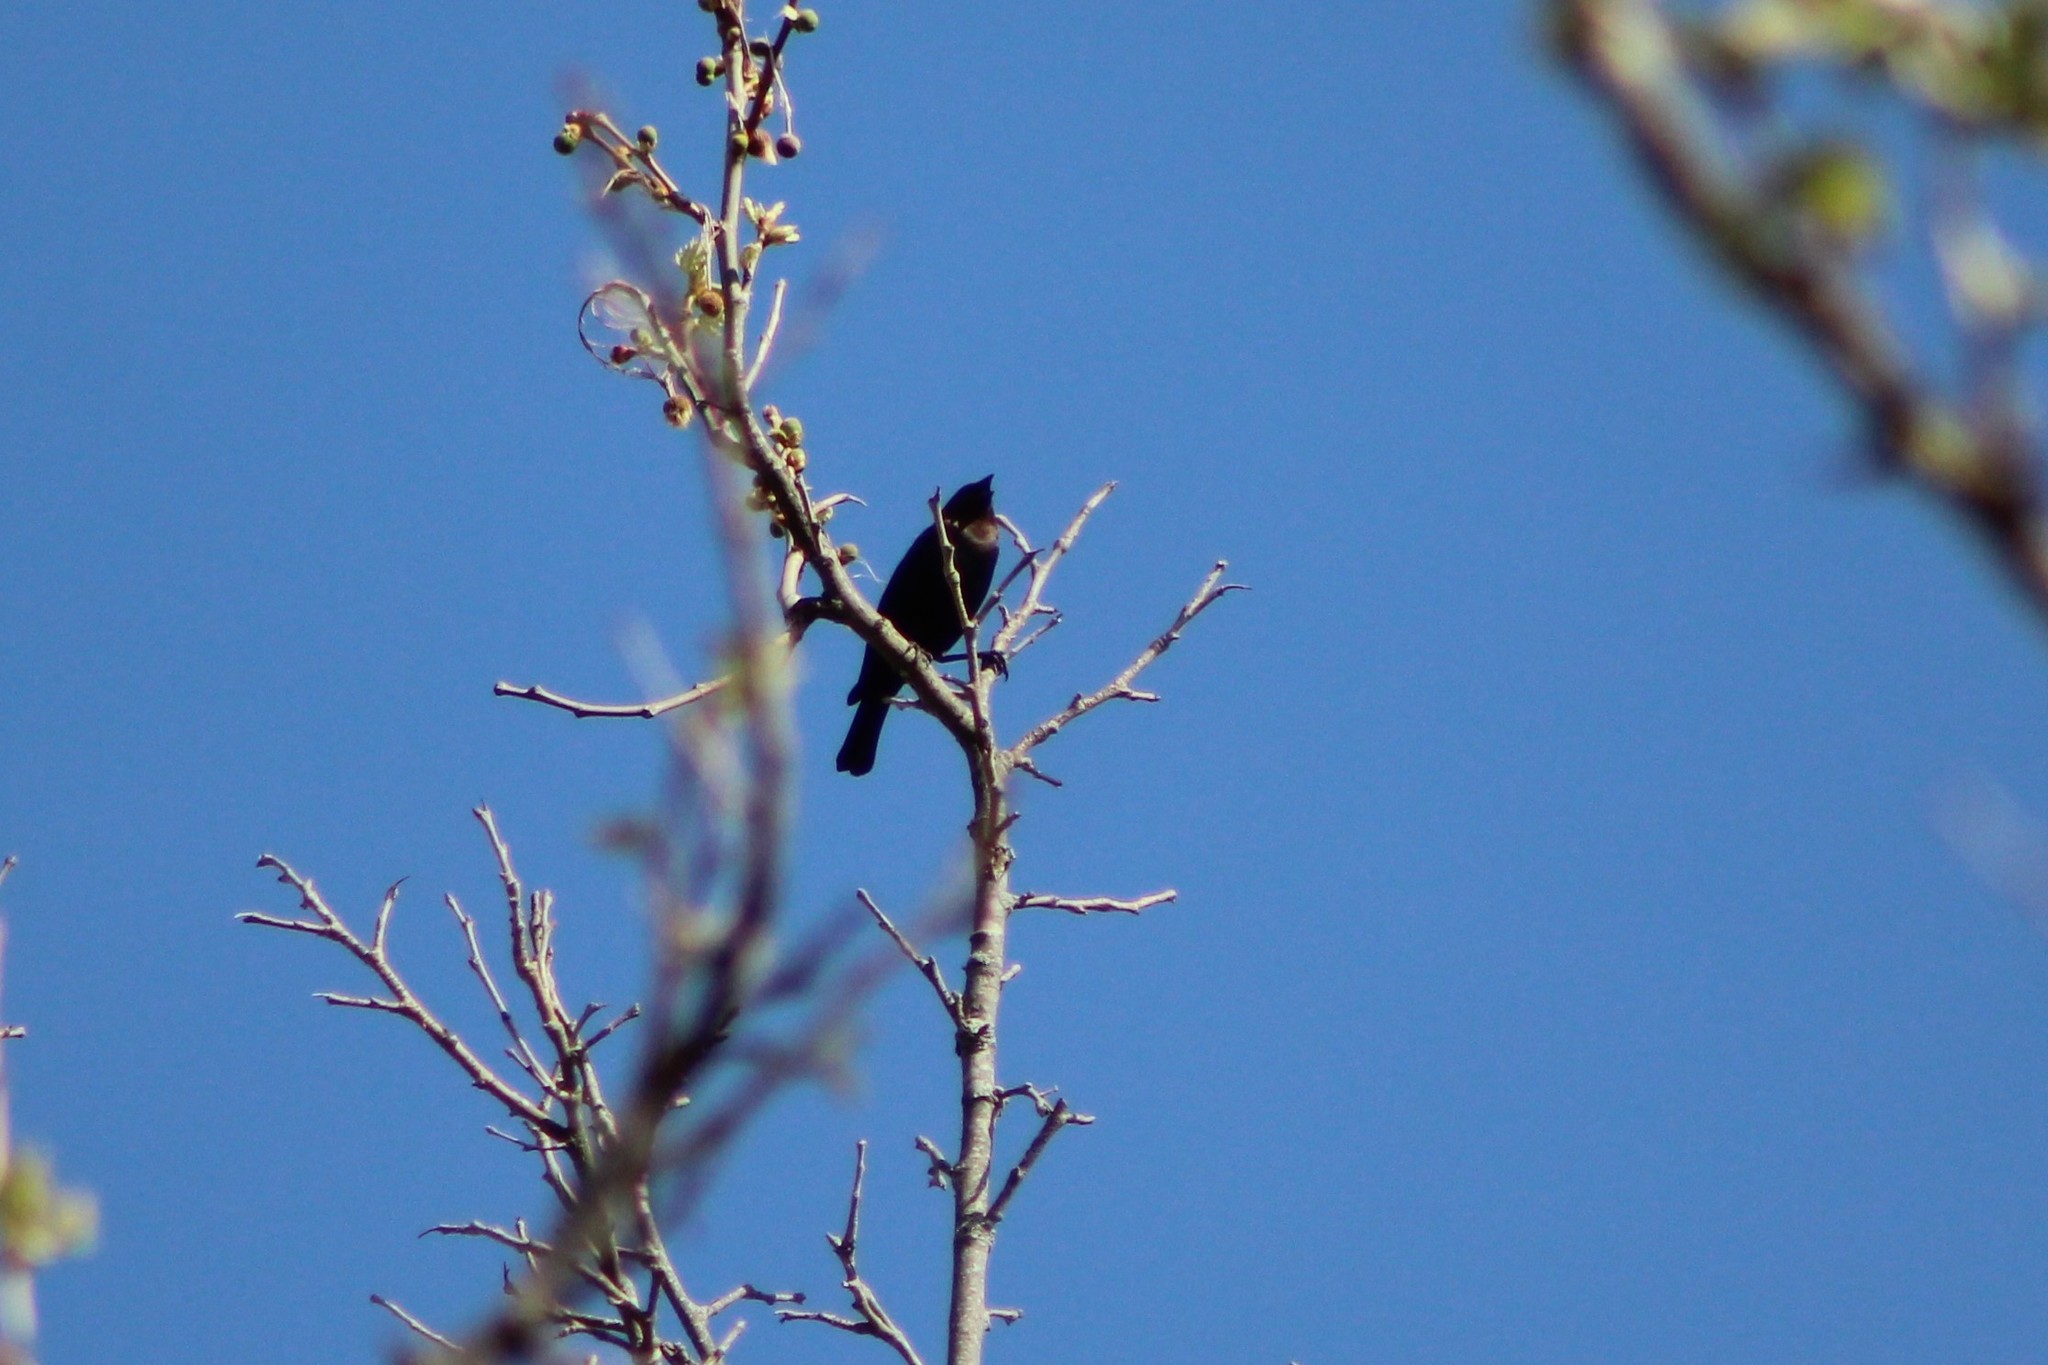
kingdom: Animalia
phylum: Chordata
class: Aves
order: Passeriformes
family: Icteridae
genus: Molothrus
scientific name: Molothrus ater
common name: Brown-headed cowbird
